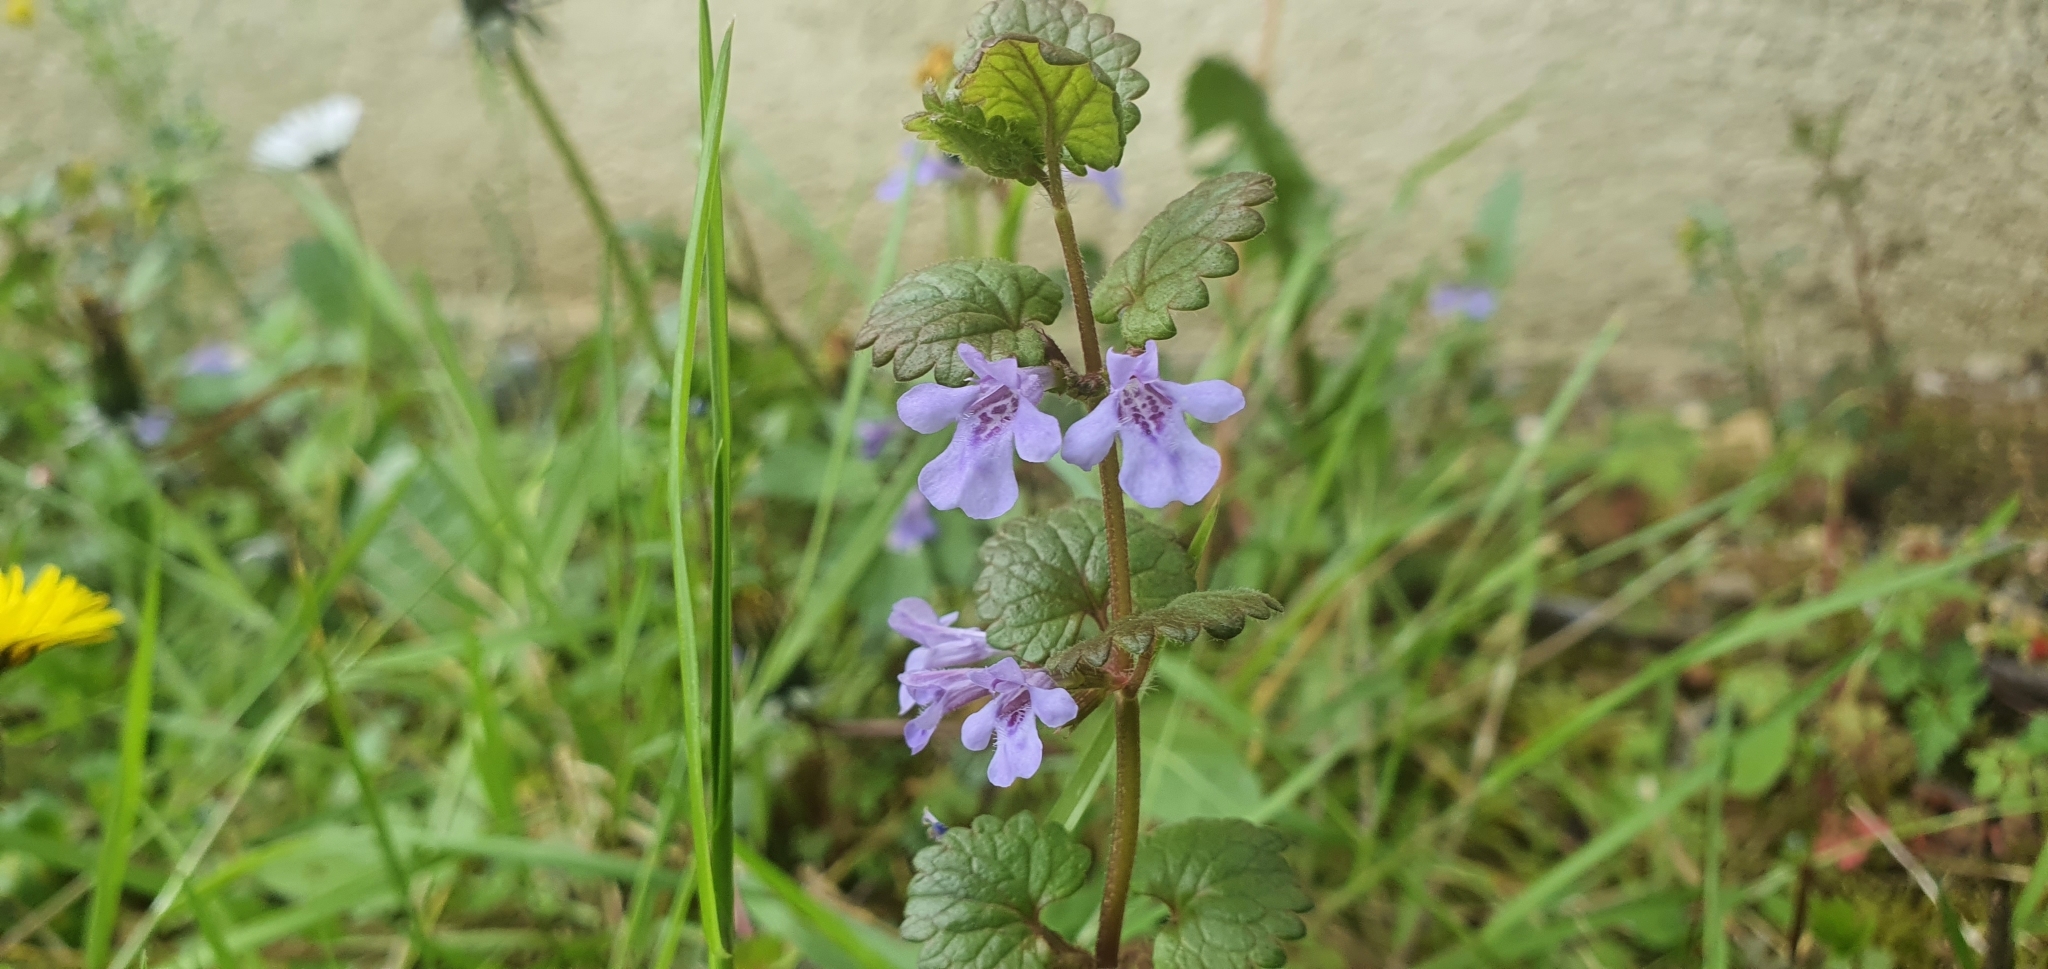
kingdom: Plantae
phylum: Tracheophyta
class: Magnoliopsida
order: Lamiales
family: Lamiaceae
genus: Glechoma
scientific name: Glechoma hederacea
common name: Ground ivy
